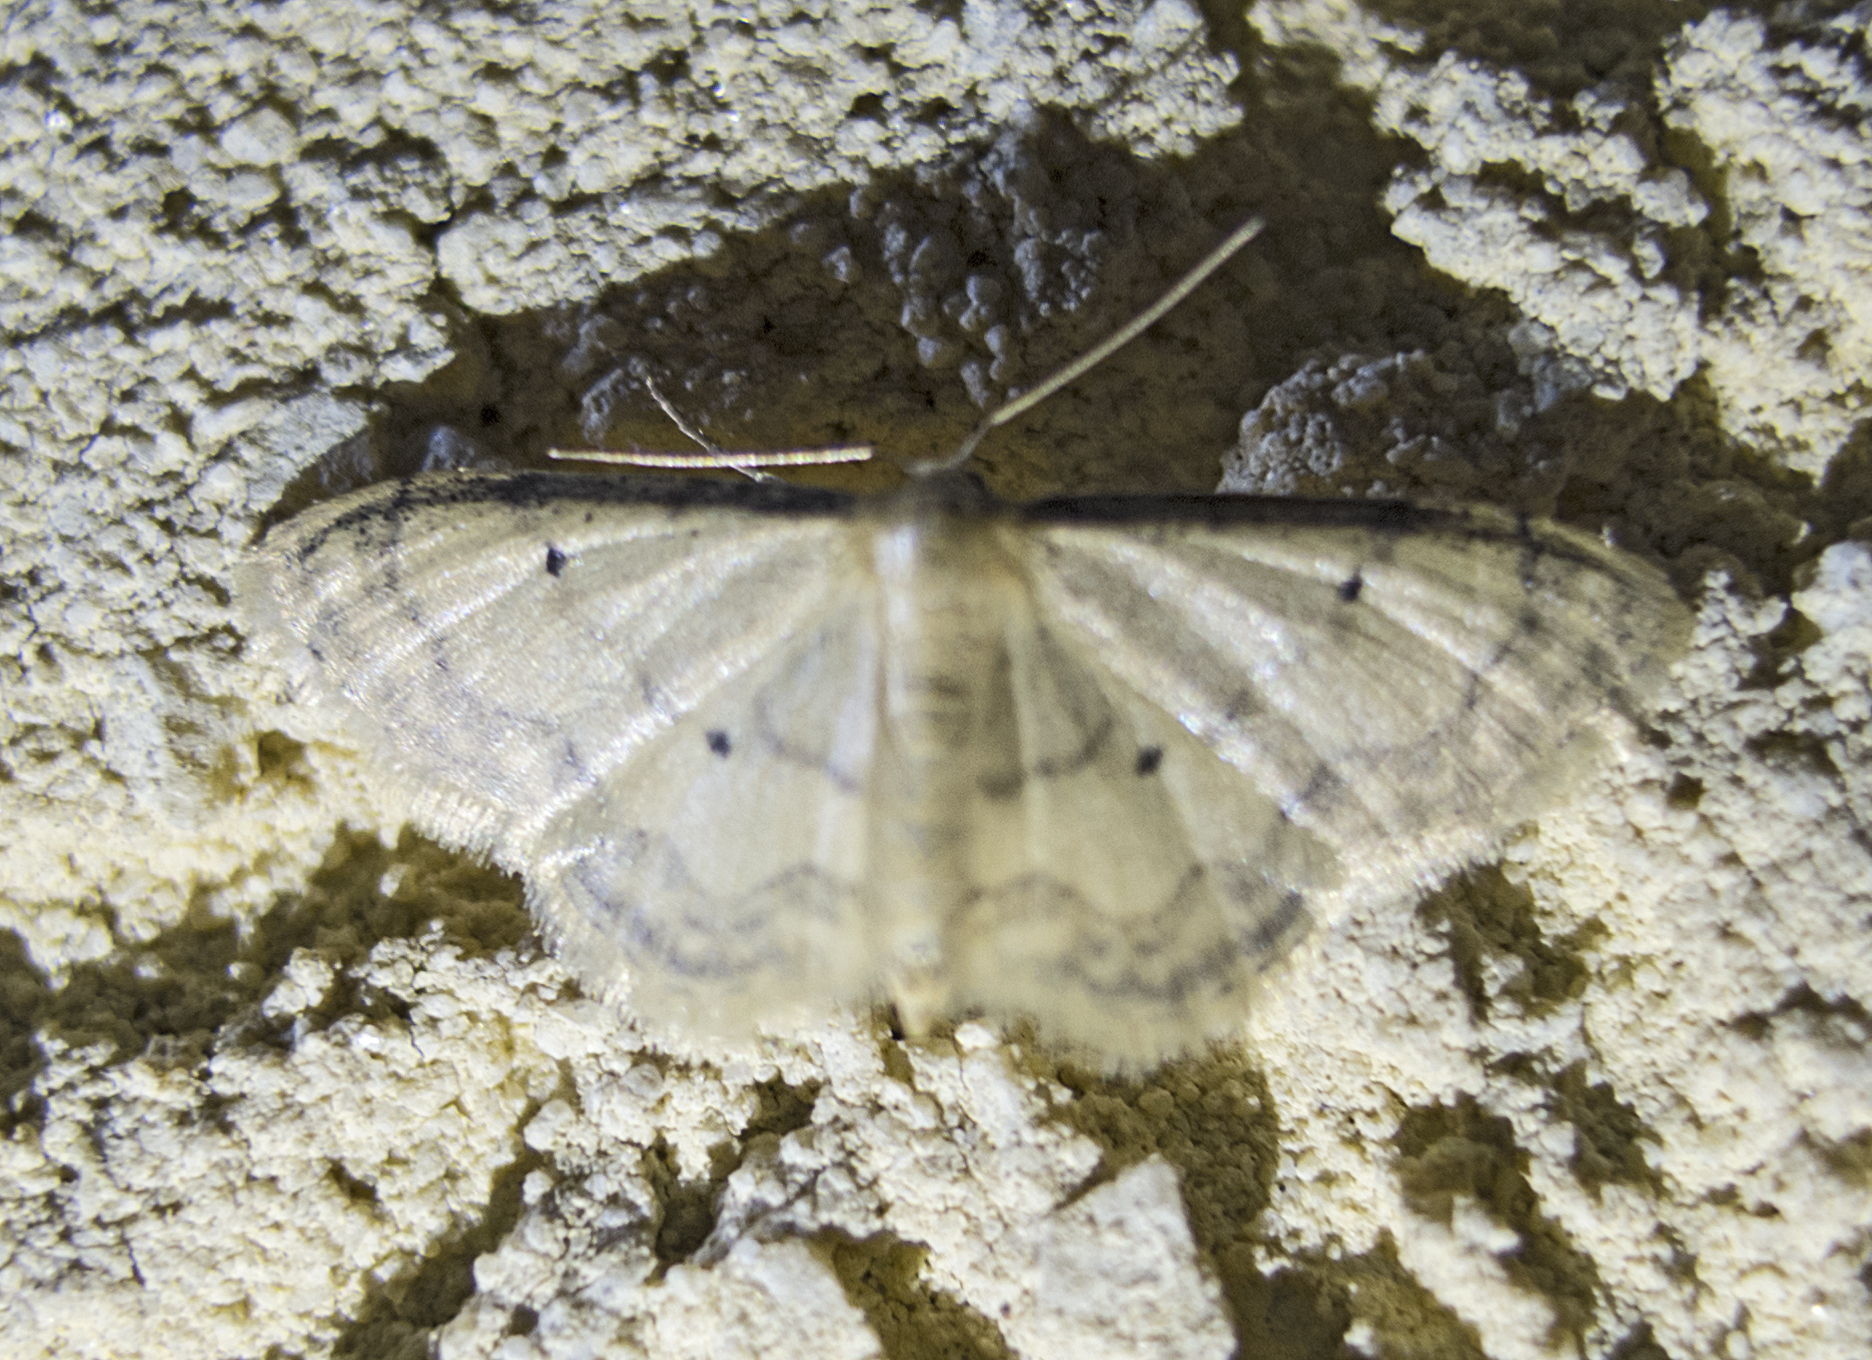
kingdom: Animalia
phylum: Arthropoda
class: Insecta
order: Lepidoptera
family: Geometridae
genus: Idaea
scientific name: Idaea politaria
